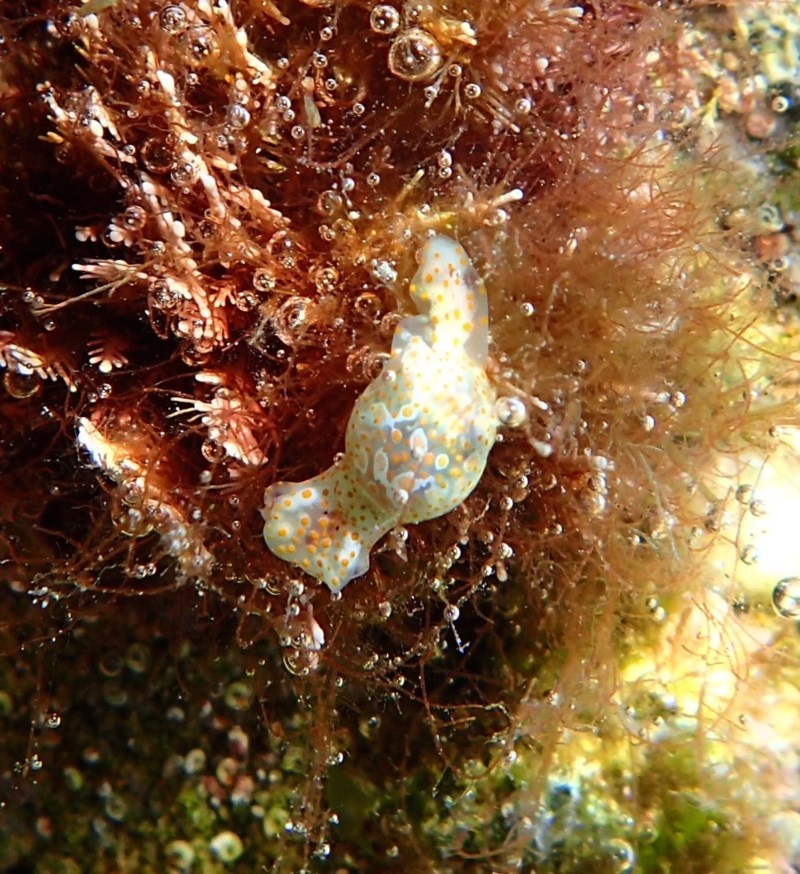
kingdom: Animalia
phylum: Mollusca
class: Gastropoda
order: Cephalaspidea
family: Haminoeidae
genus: Lamprohaminoea
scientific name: Lamprohaminoea cymbalum
